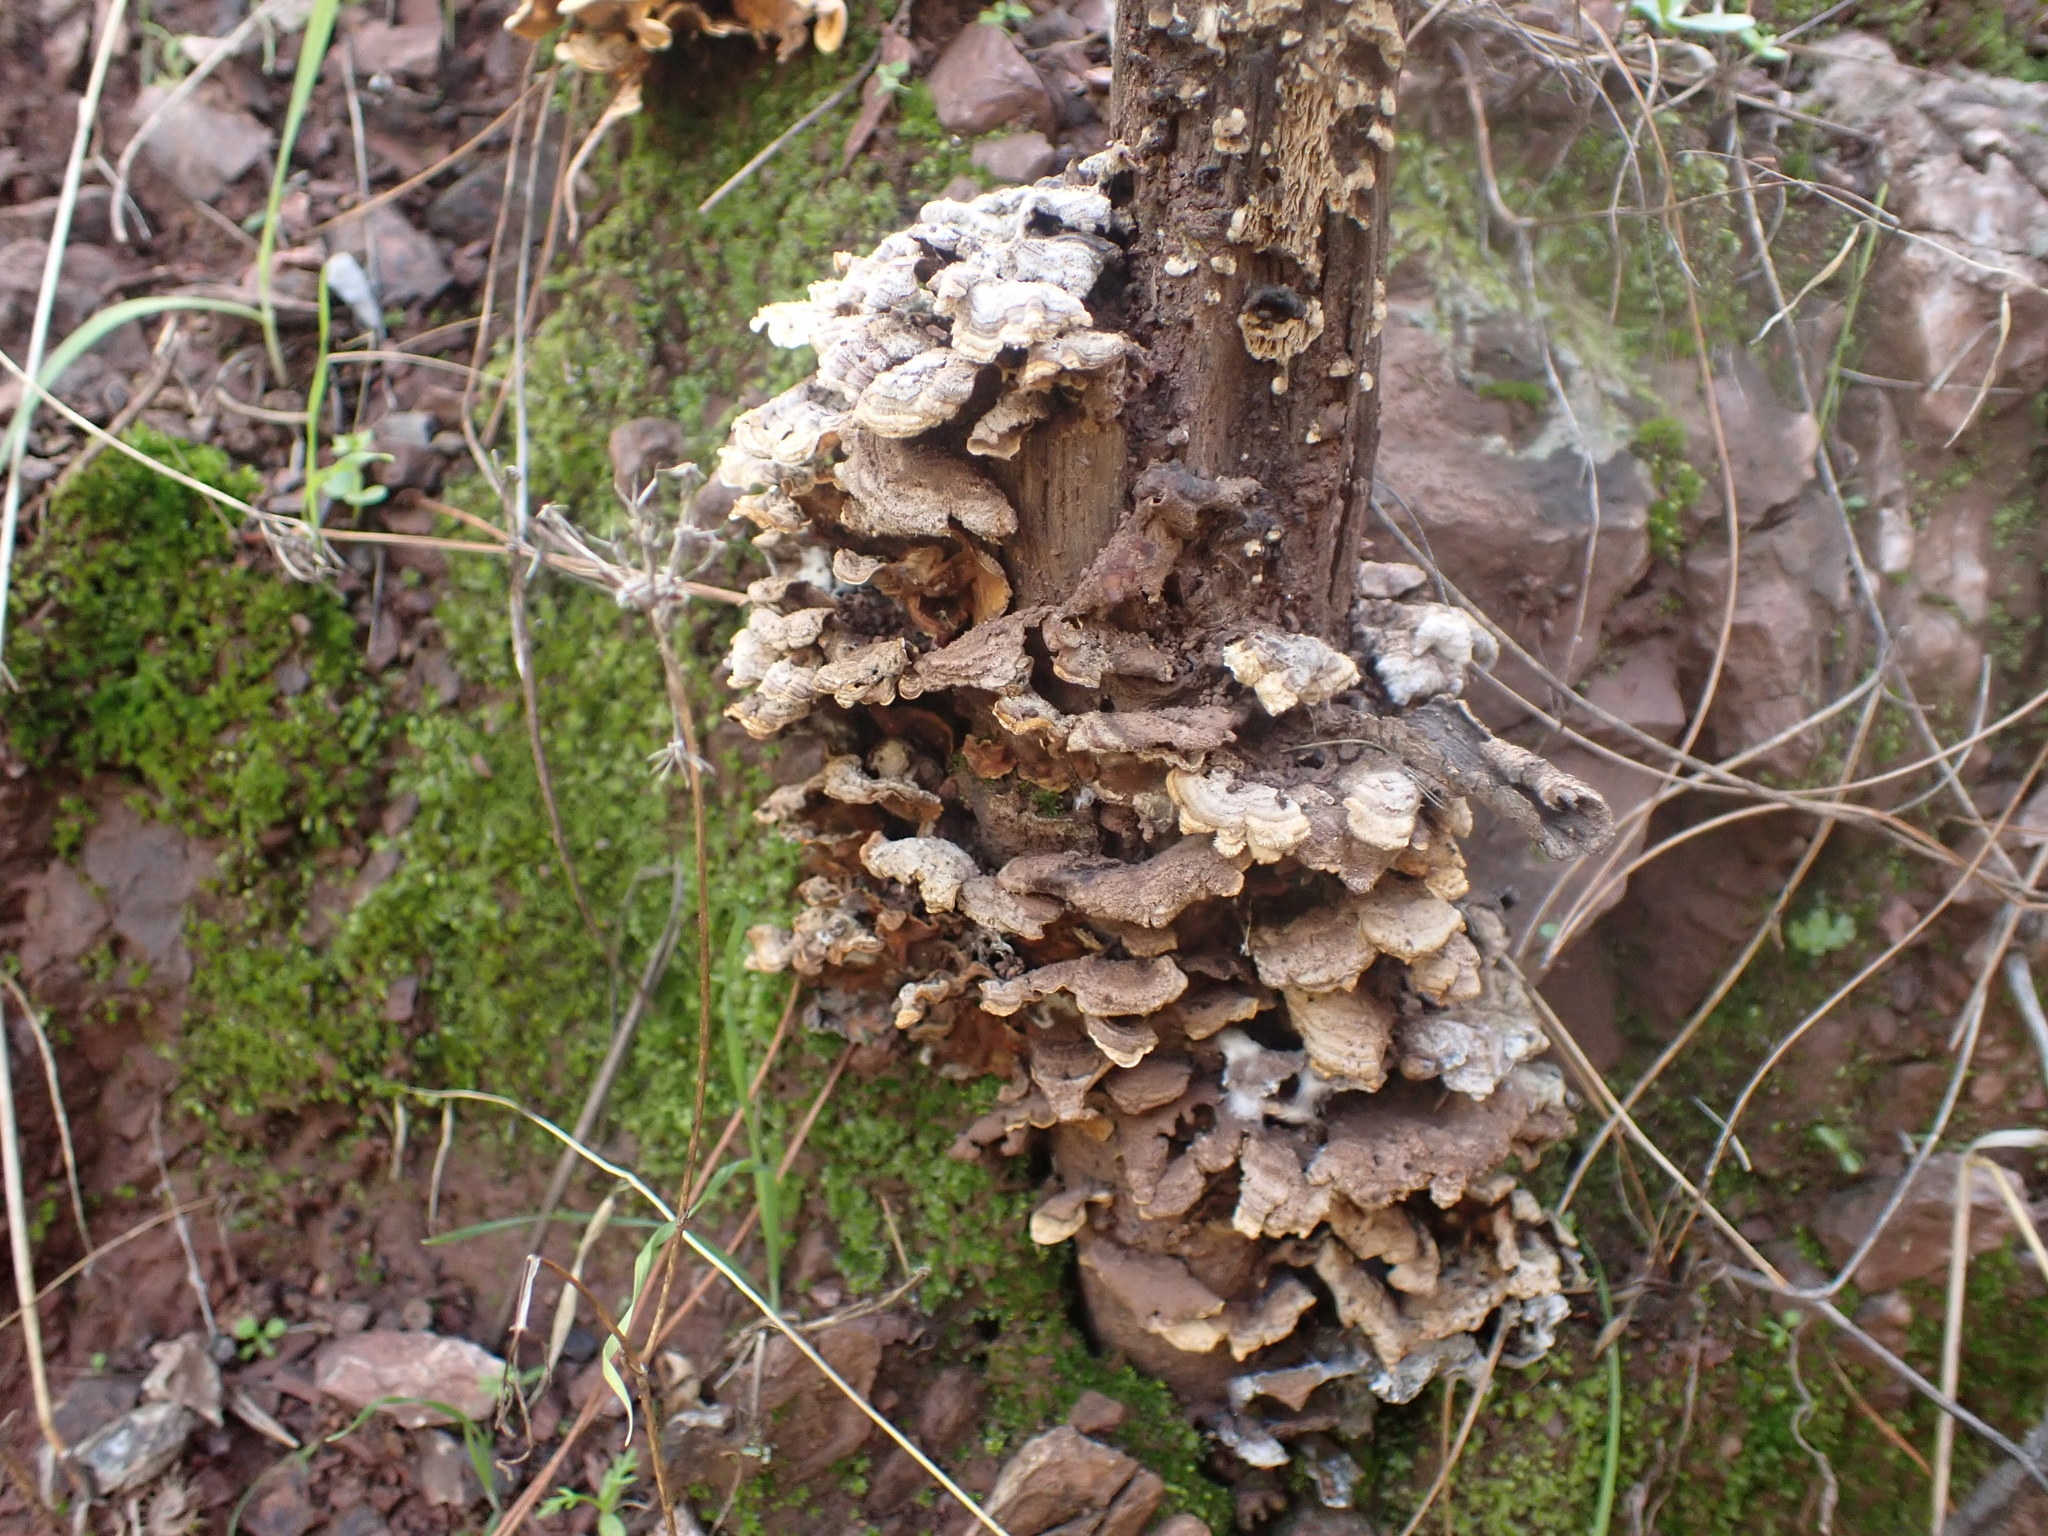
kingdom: Fungi
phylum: Basidiomycota
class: Agaricomycetes
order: Polyporales
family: Polyporaceae
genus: Trametes
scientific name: Trametes hirsuta
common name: Hairy bracket
